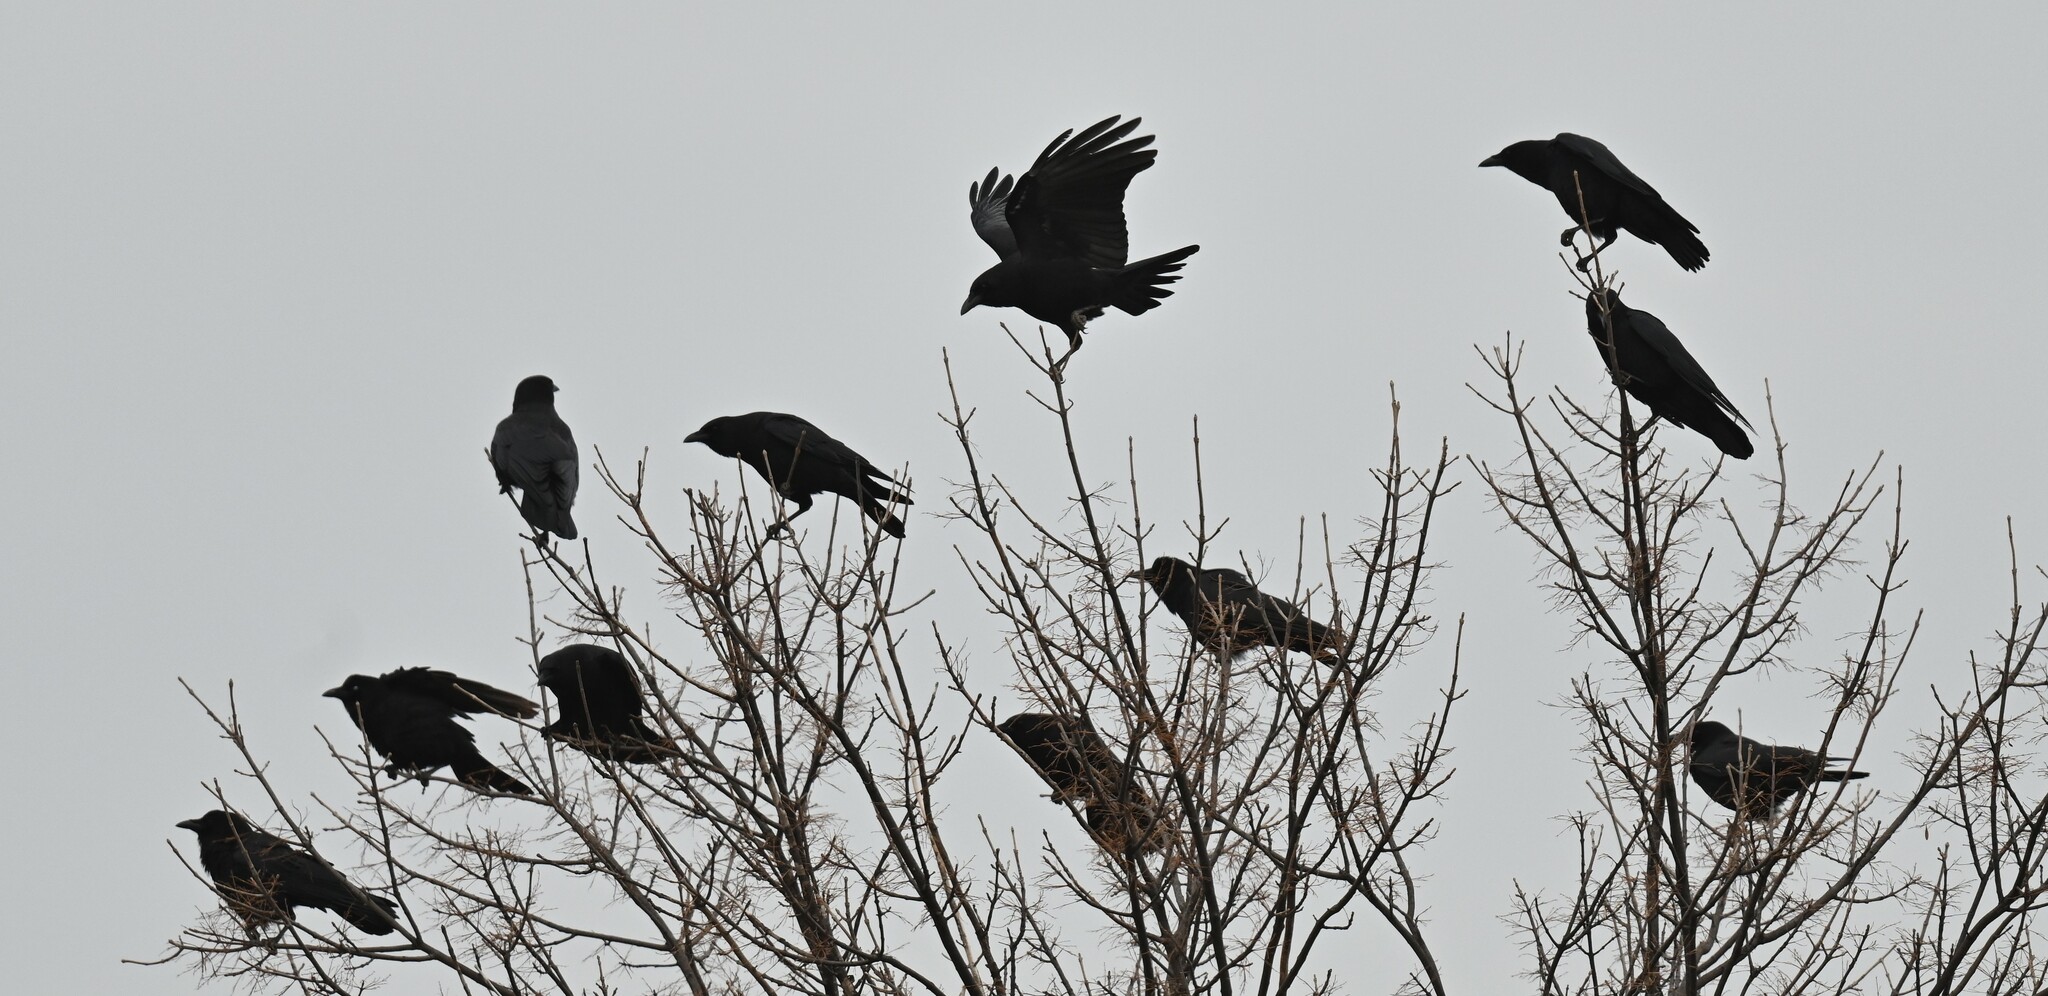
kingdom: Animalia
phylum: Chordata
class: Aves
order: Passeriformes
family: Corvidae
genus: Corvus
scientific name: Corvus brachyrhynchos
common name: American crow
